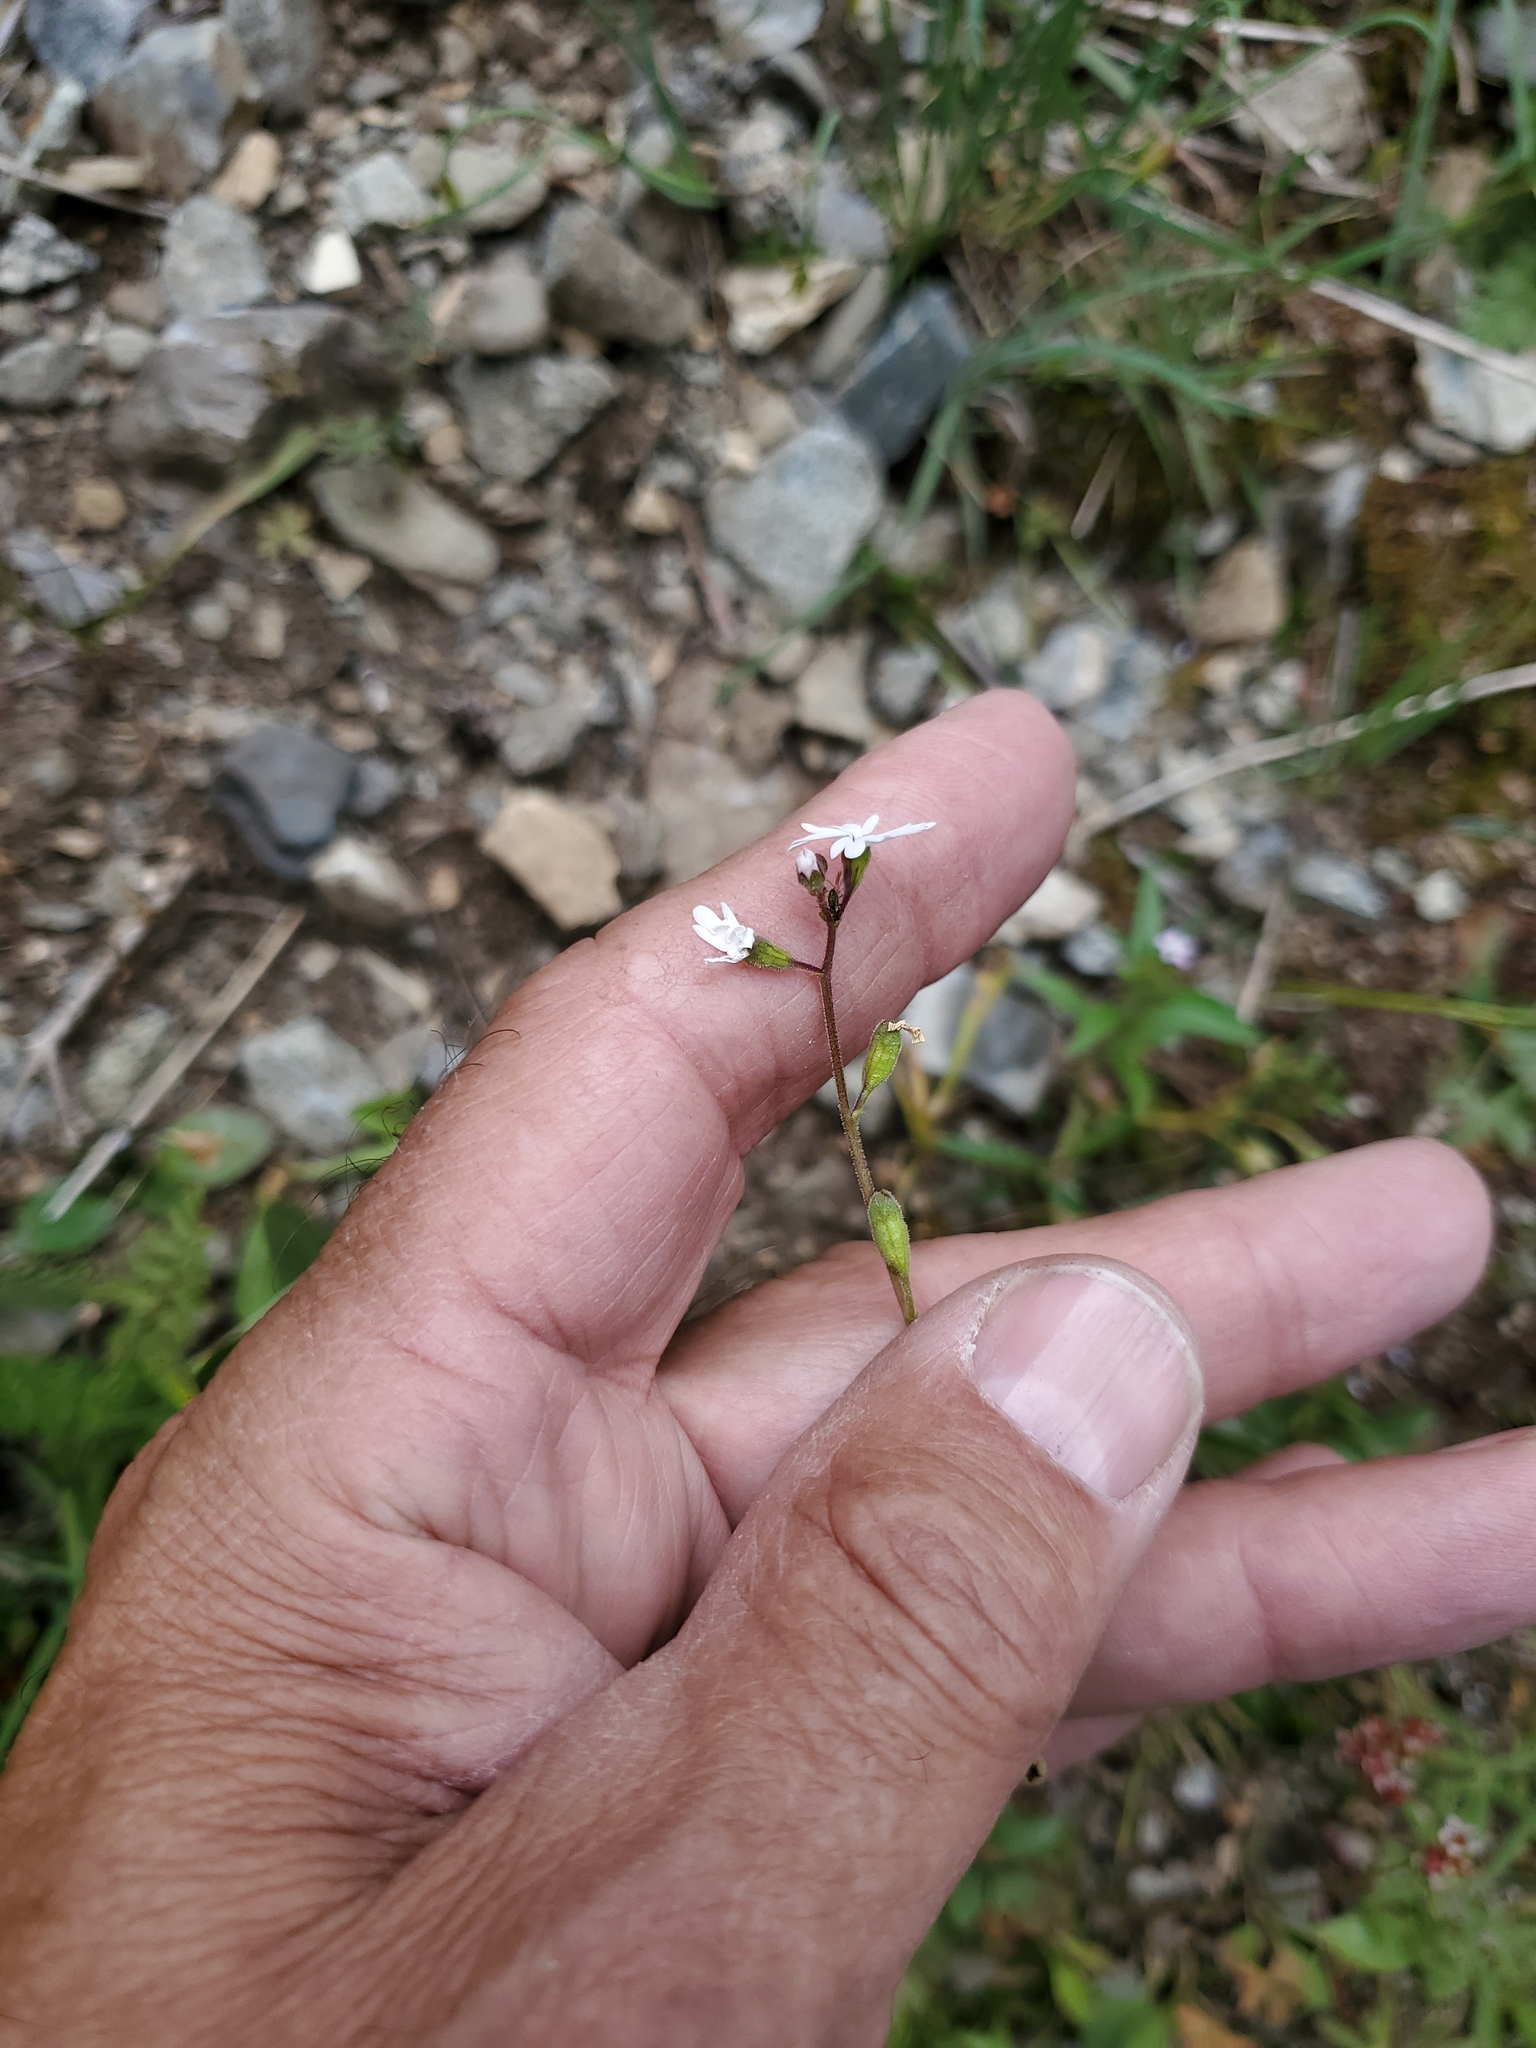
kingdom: Plantae
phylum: Tracheophyta
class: Magnoliopsida
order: Saxifragales
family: Saxifragaceae
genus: Lithophragma
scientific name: Lithophragma parviflorum
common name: Small-flowered fringe-cup
